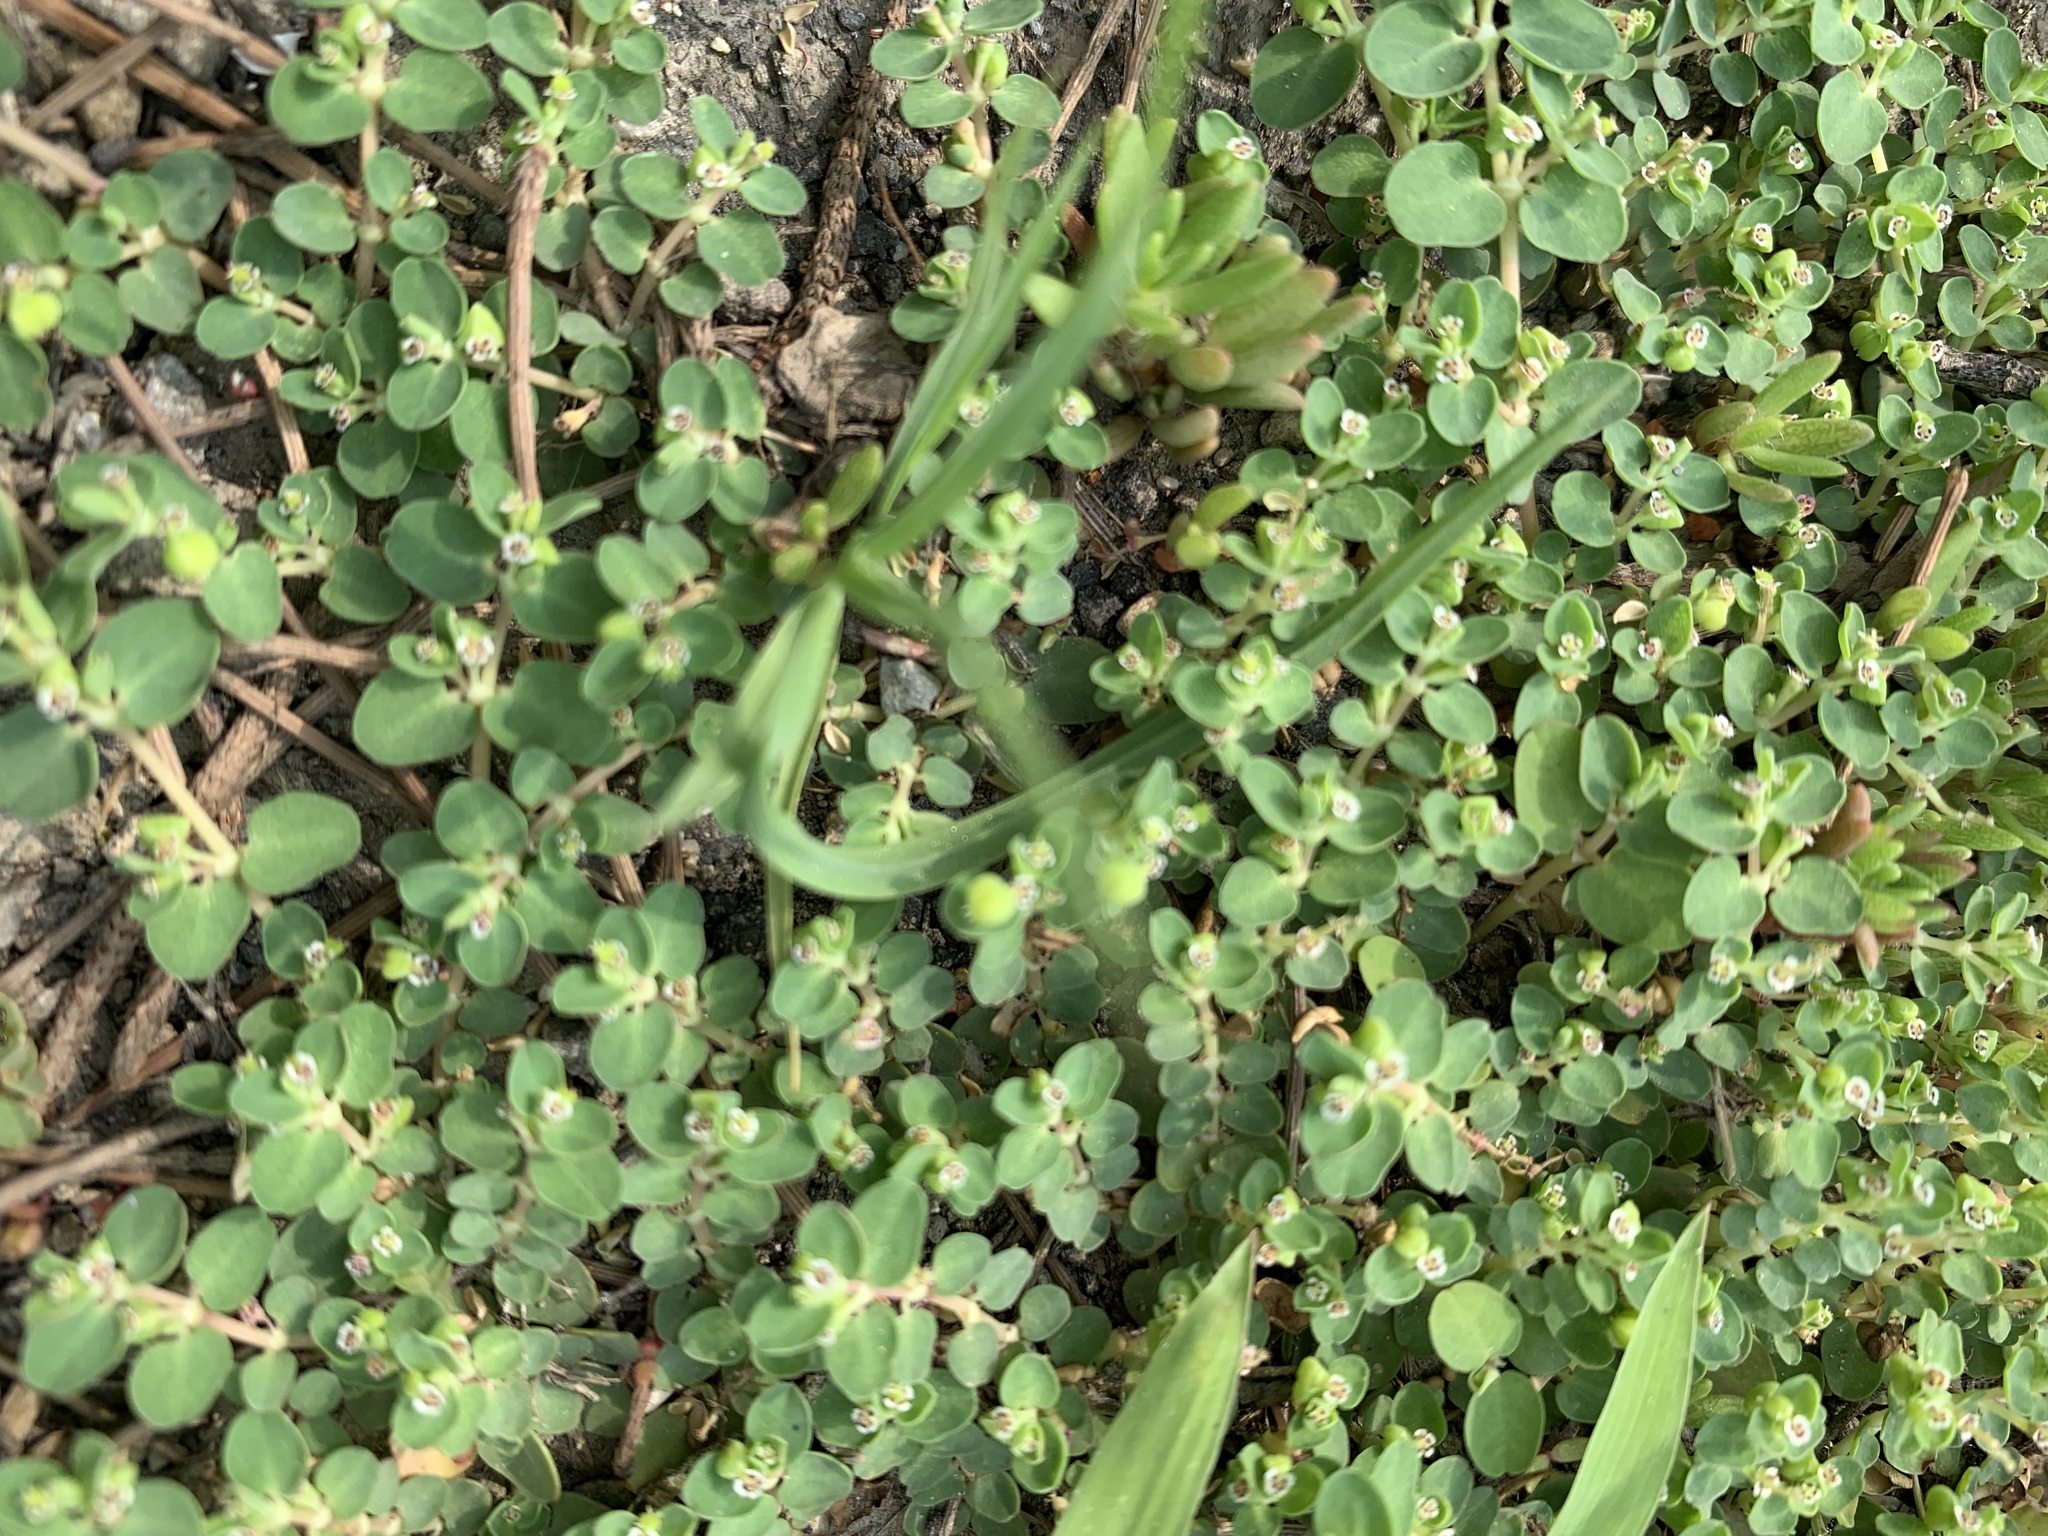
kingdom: Plantae
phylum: Tracheophyta
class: Magnoliopsida
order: Malpighiales
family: Euphorbiaceae
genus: Euphorbia
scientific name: Euphorbia serpens
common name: Matted sandmat
